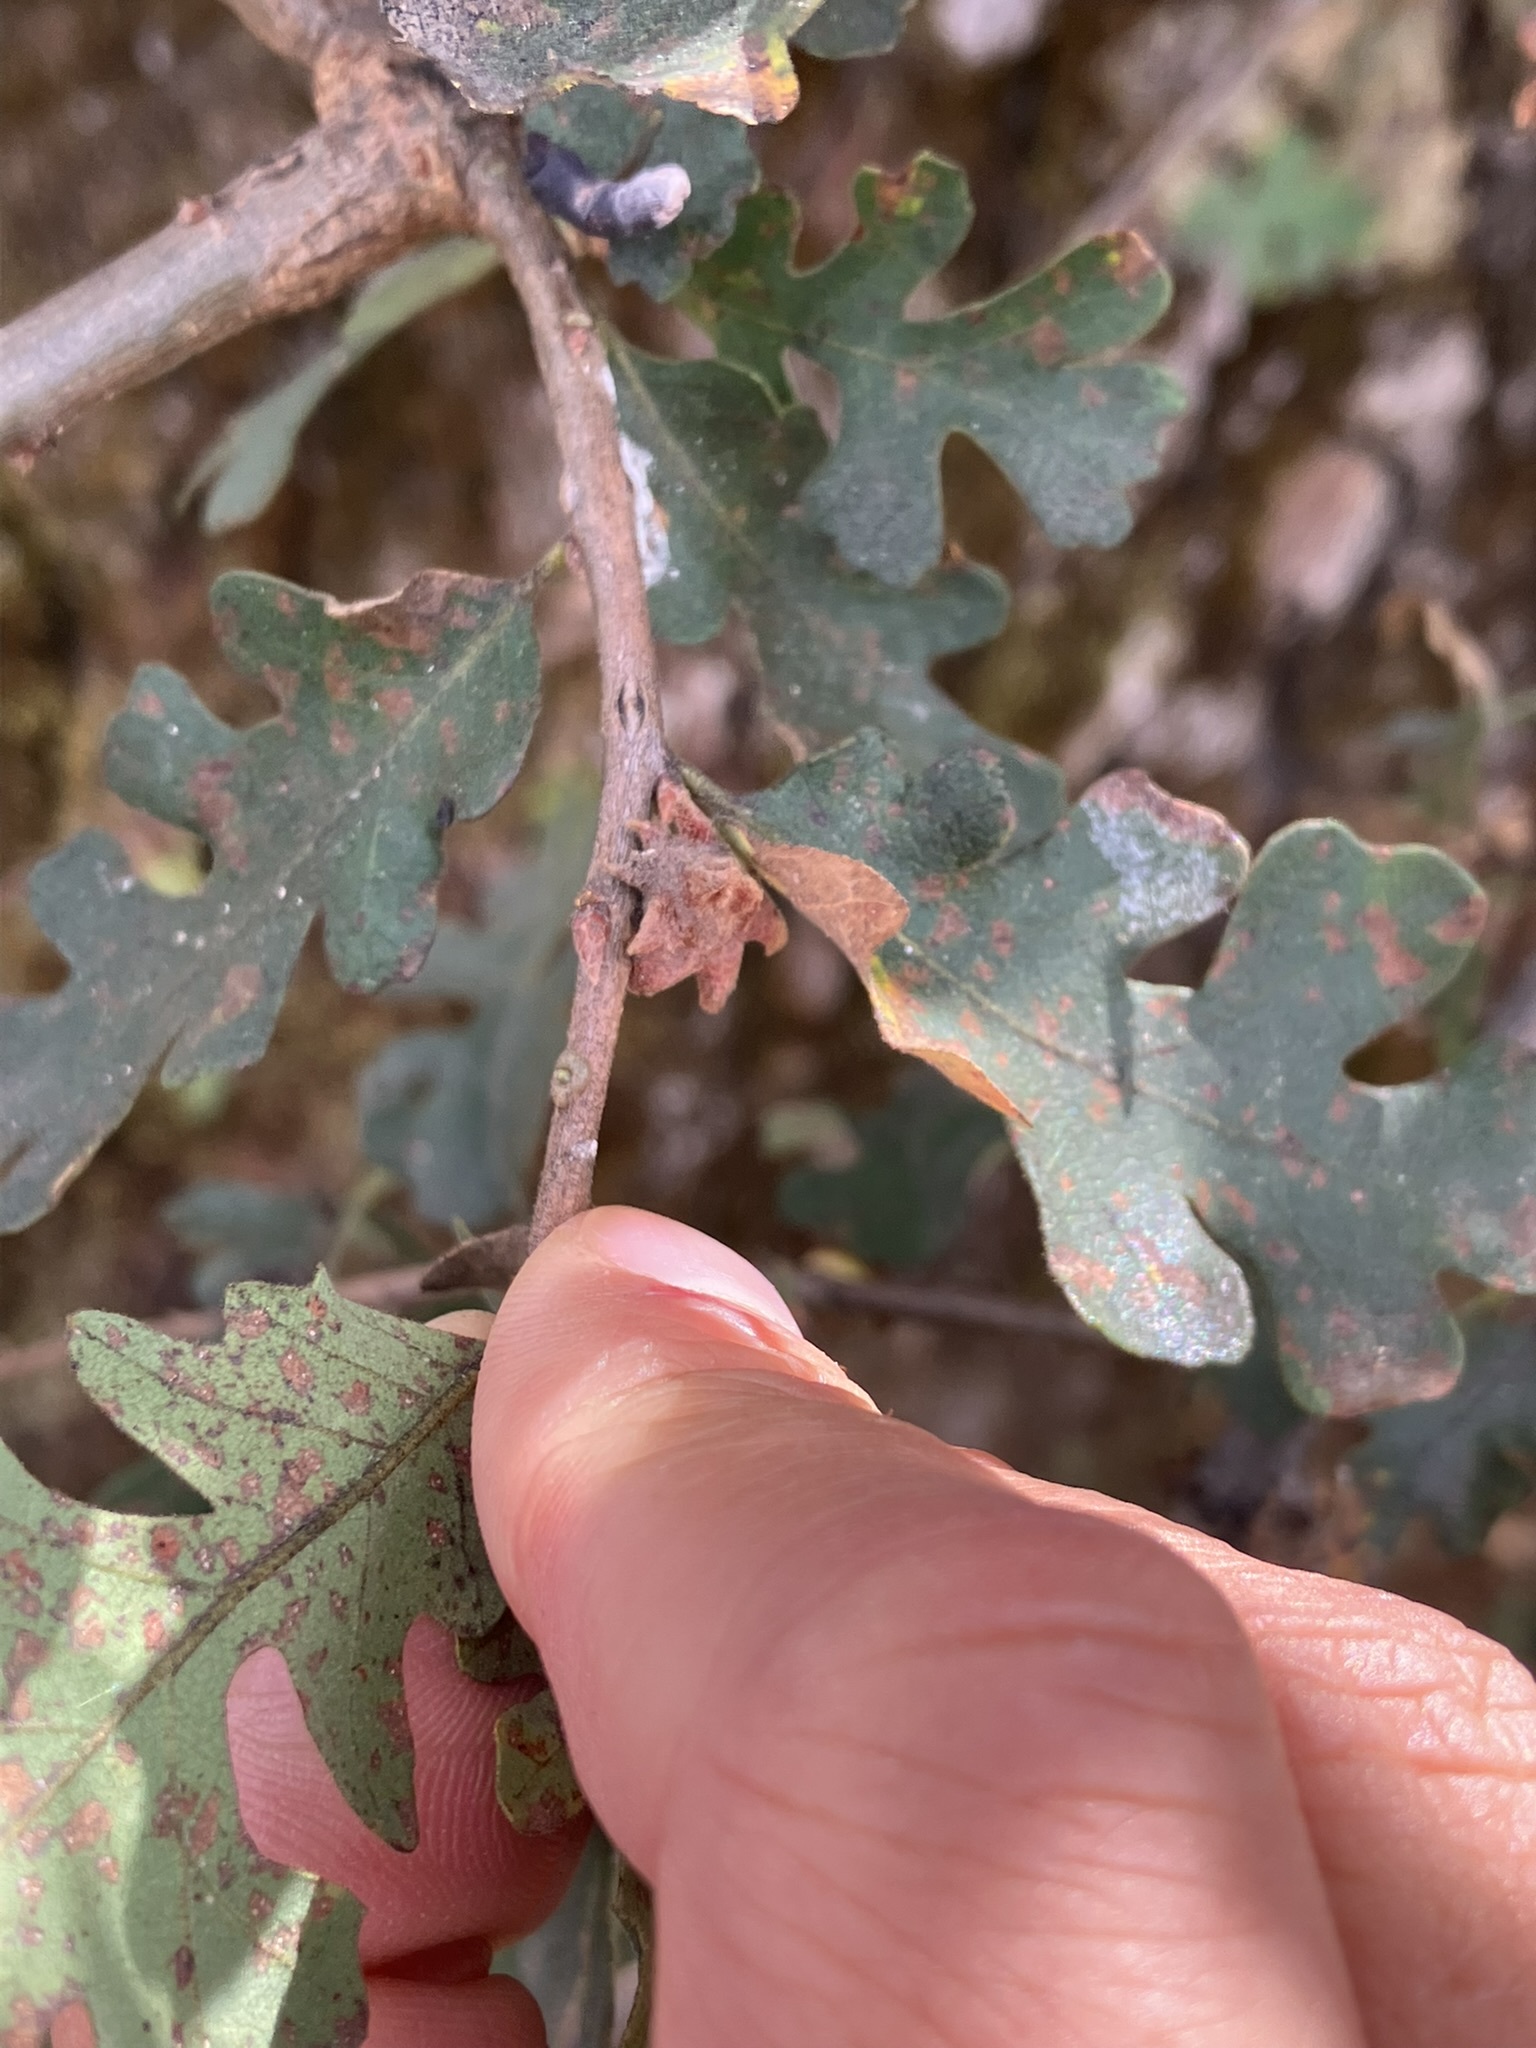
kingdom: Animalia
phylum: Arthropoda
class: Insecta
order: Hymenoptera
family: Cynipidae
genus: Cynips
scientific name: Cynips
